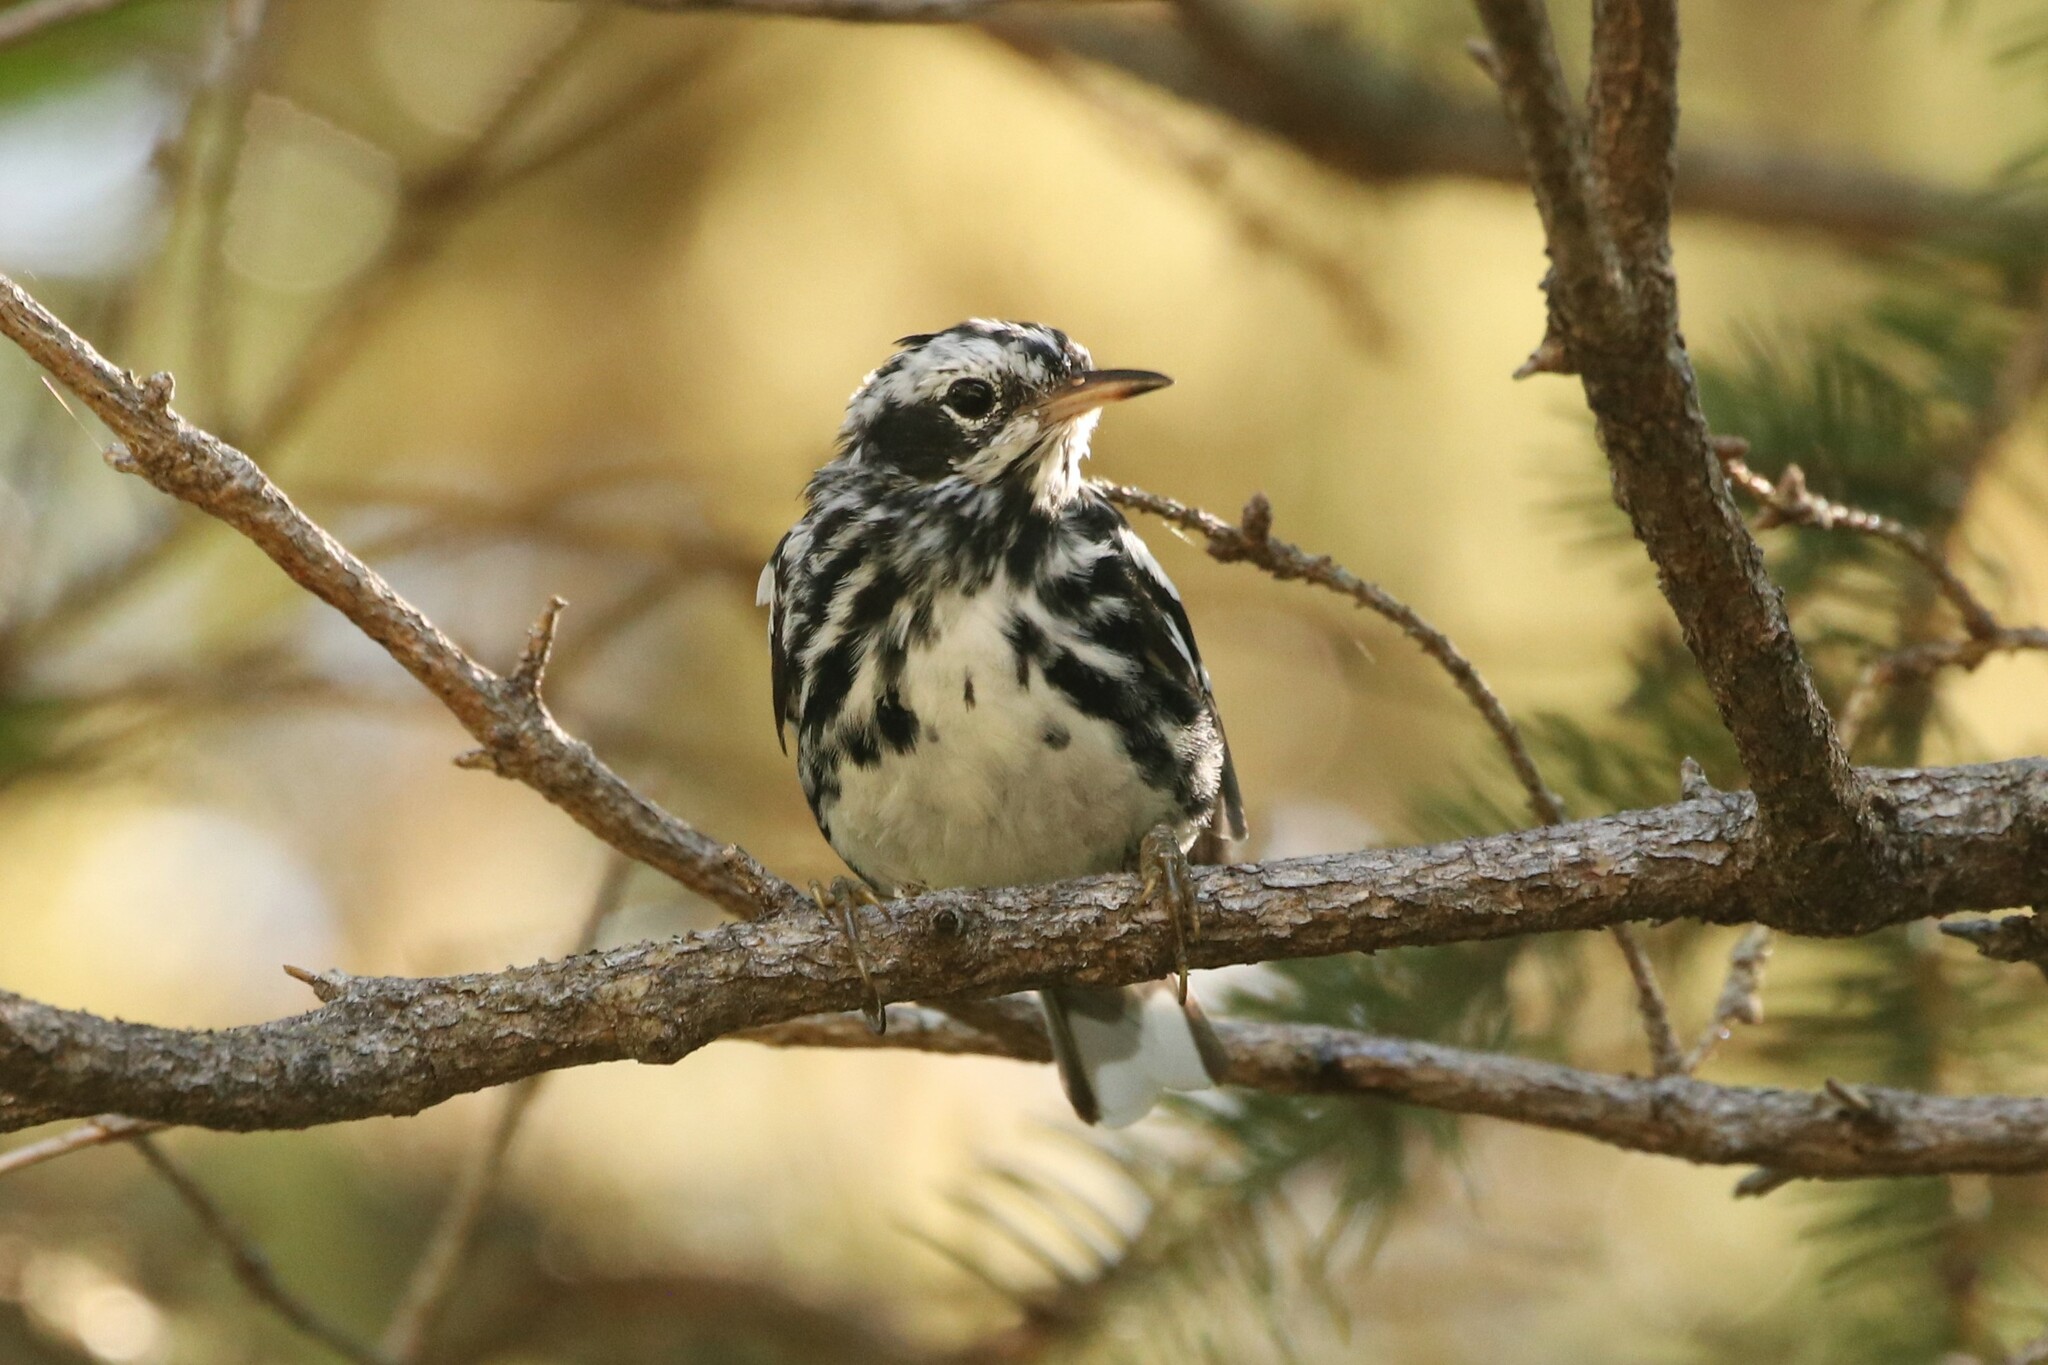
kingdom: Animalia
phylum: Chordata
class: Aves
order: Passeriformes
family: Parulidae
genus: Mniotilta
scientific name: Mniotilta varia
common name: Black-and-white warbler
